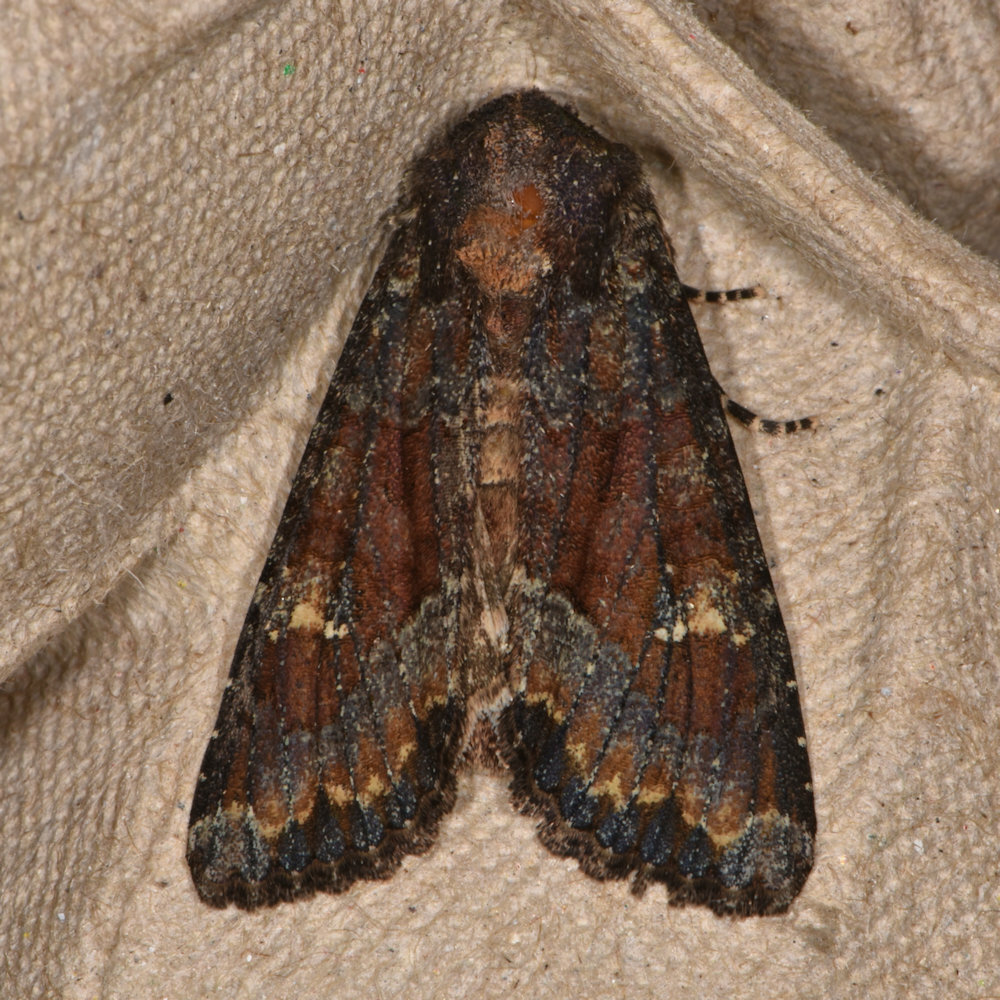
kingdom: Animalia
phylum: Arthropoda
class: Insecta
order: Lepidoptera
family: Noctuidae
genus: Apamea
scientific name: Apamea amputatrix
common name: Yellow-headed cutworm moth
